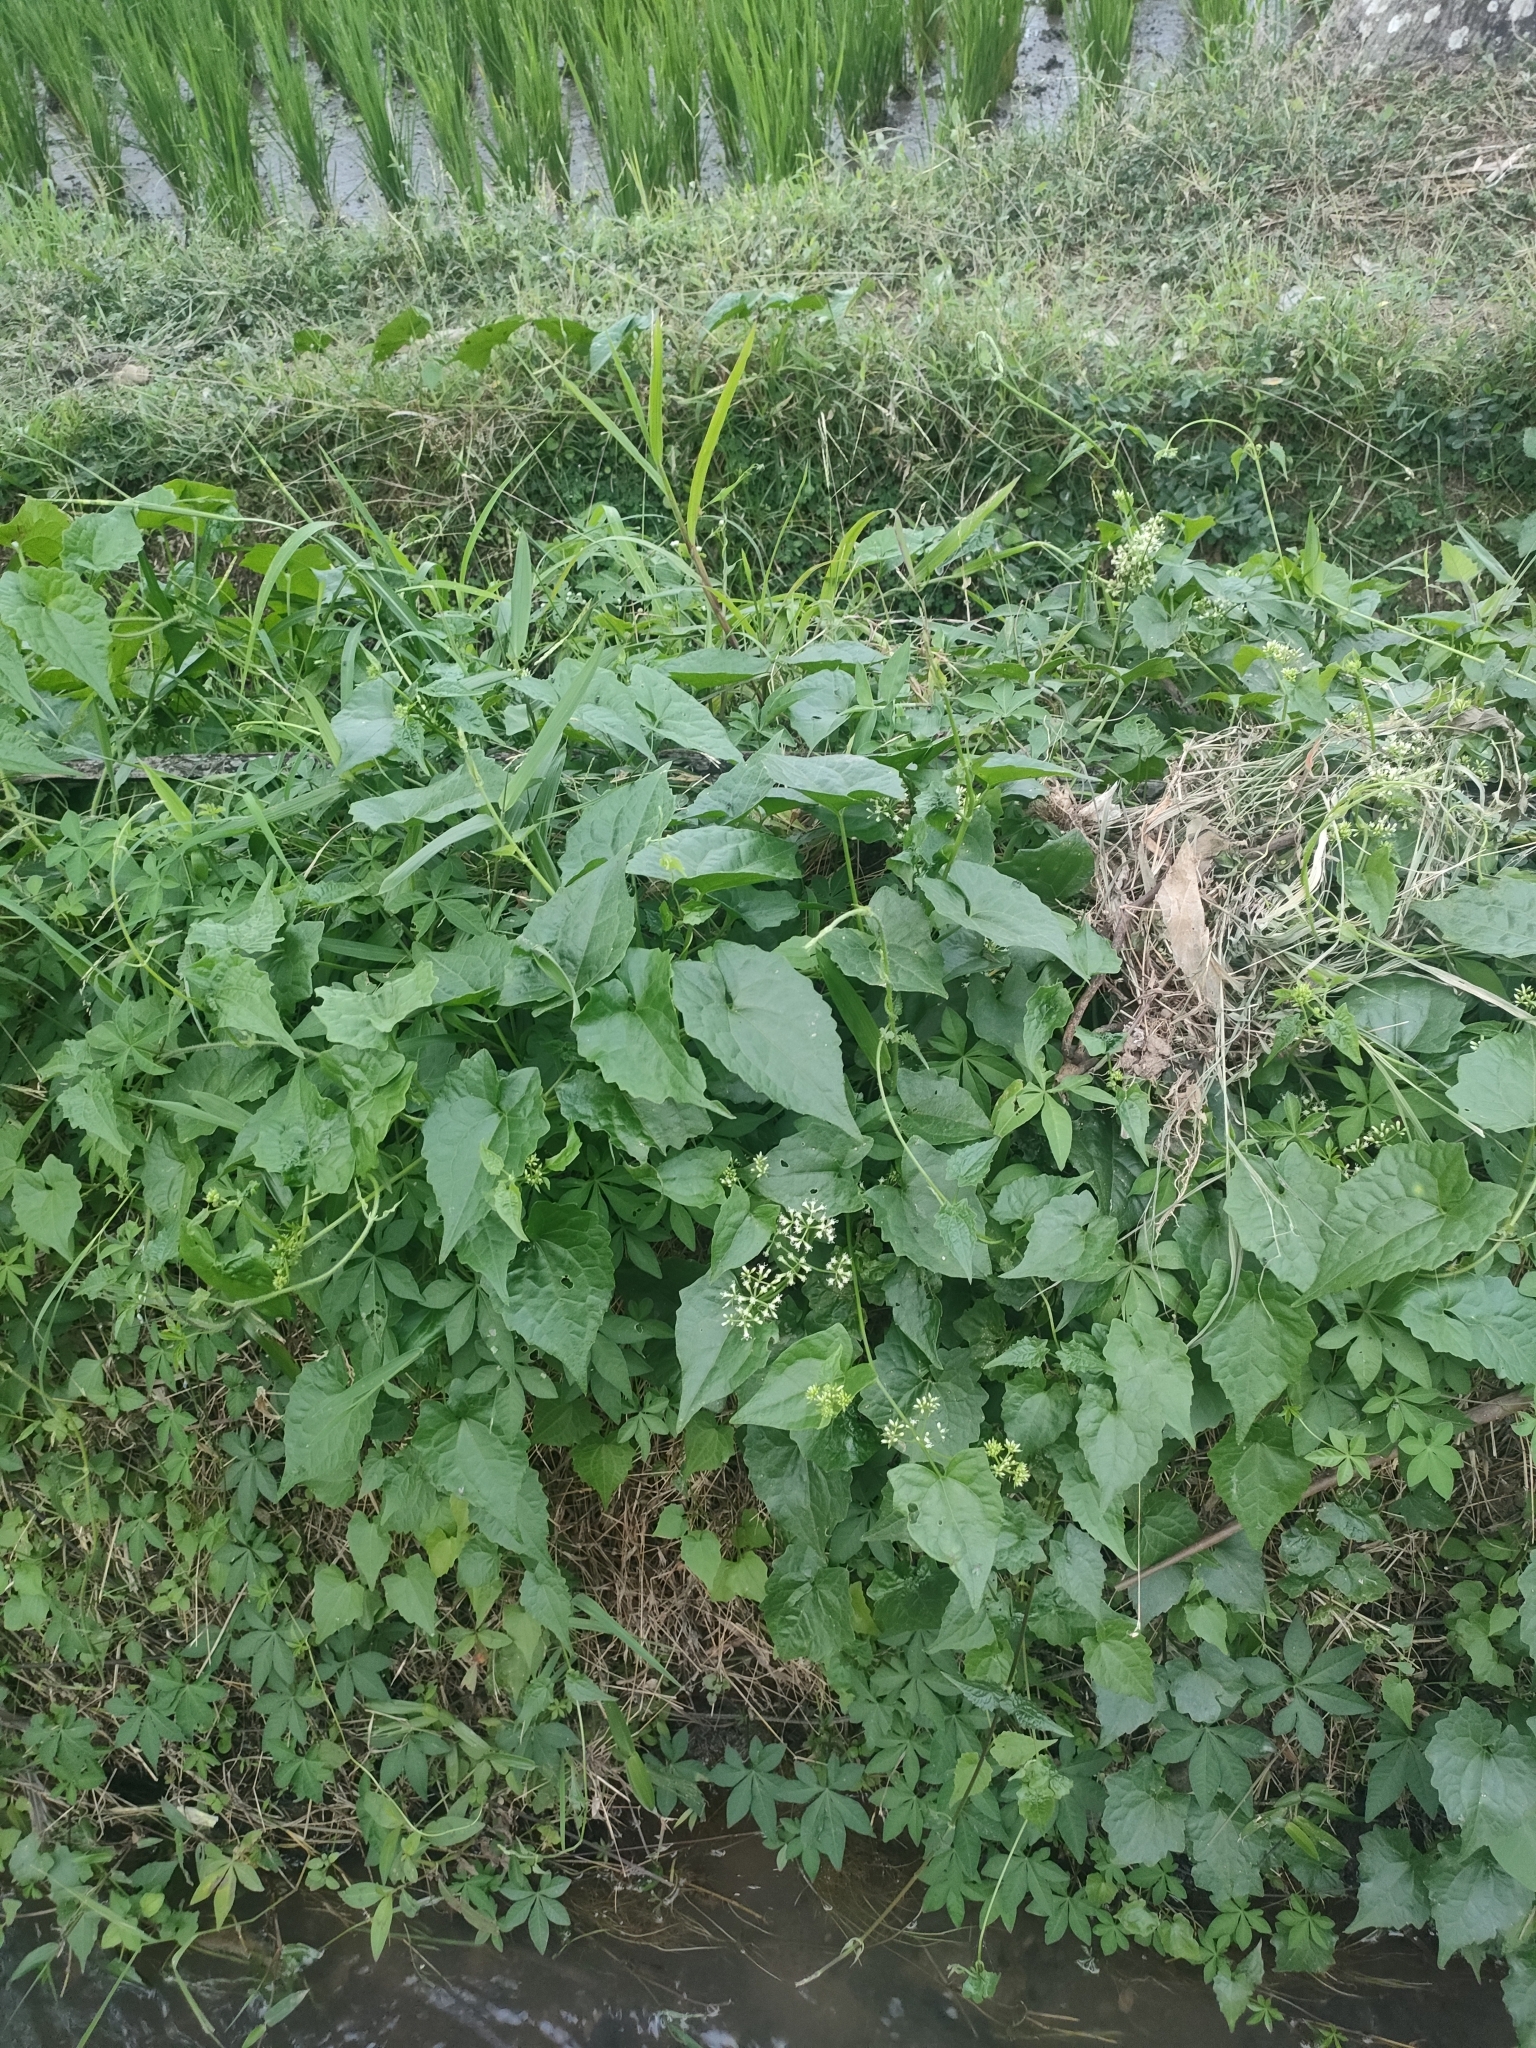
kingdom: Plantae
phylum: Tracheophyta
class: Magnoliopsida
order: Asterales
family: Asteraceae
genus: Mikania
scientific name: Mikania micrantha
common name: Mile-a-minute
